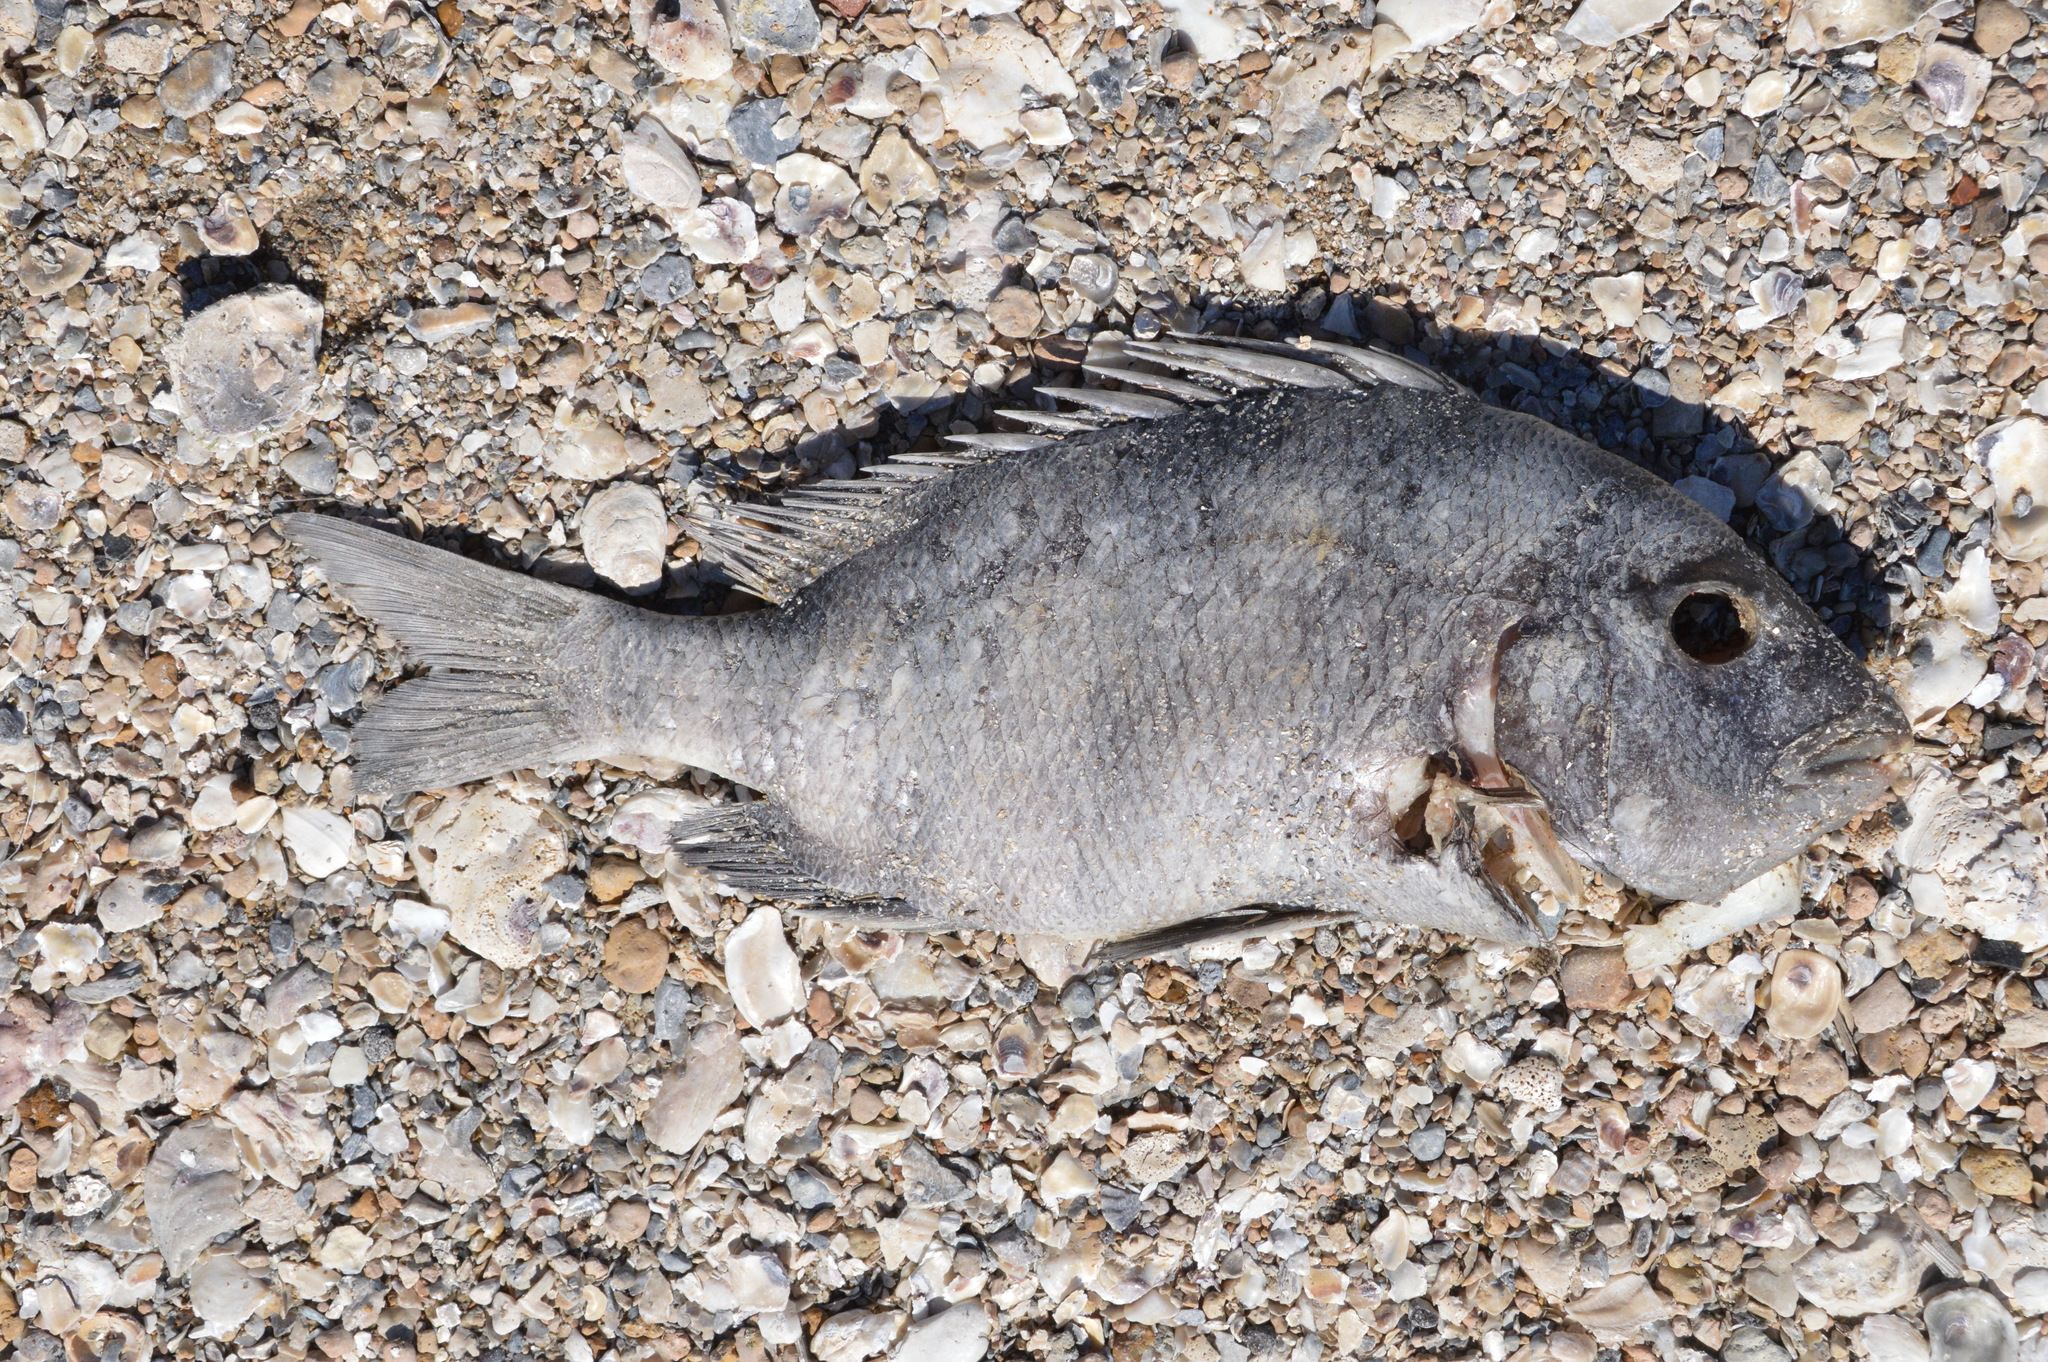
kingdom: Animalia
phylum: Chordata
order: Perciformes
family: Sparidae
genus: Archosargus
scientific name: Archosargus probatocephalus
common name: Sheepshead
